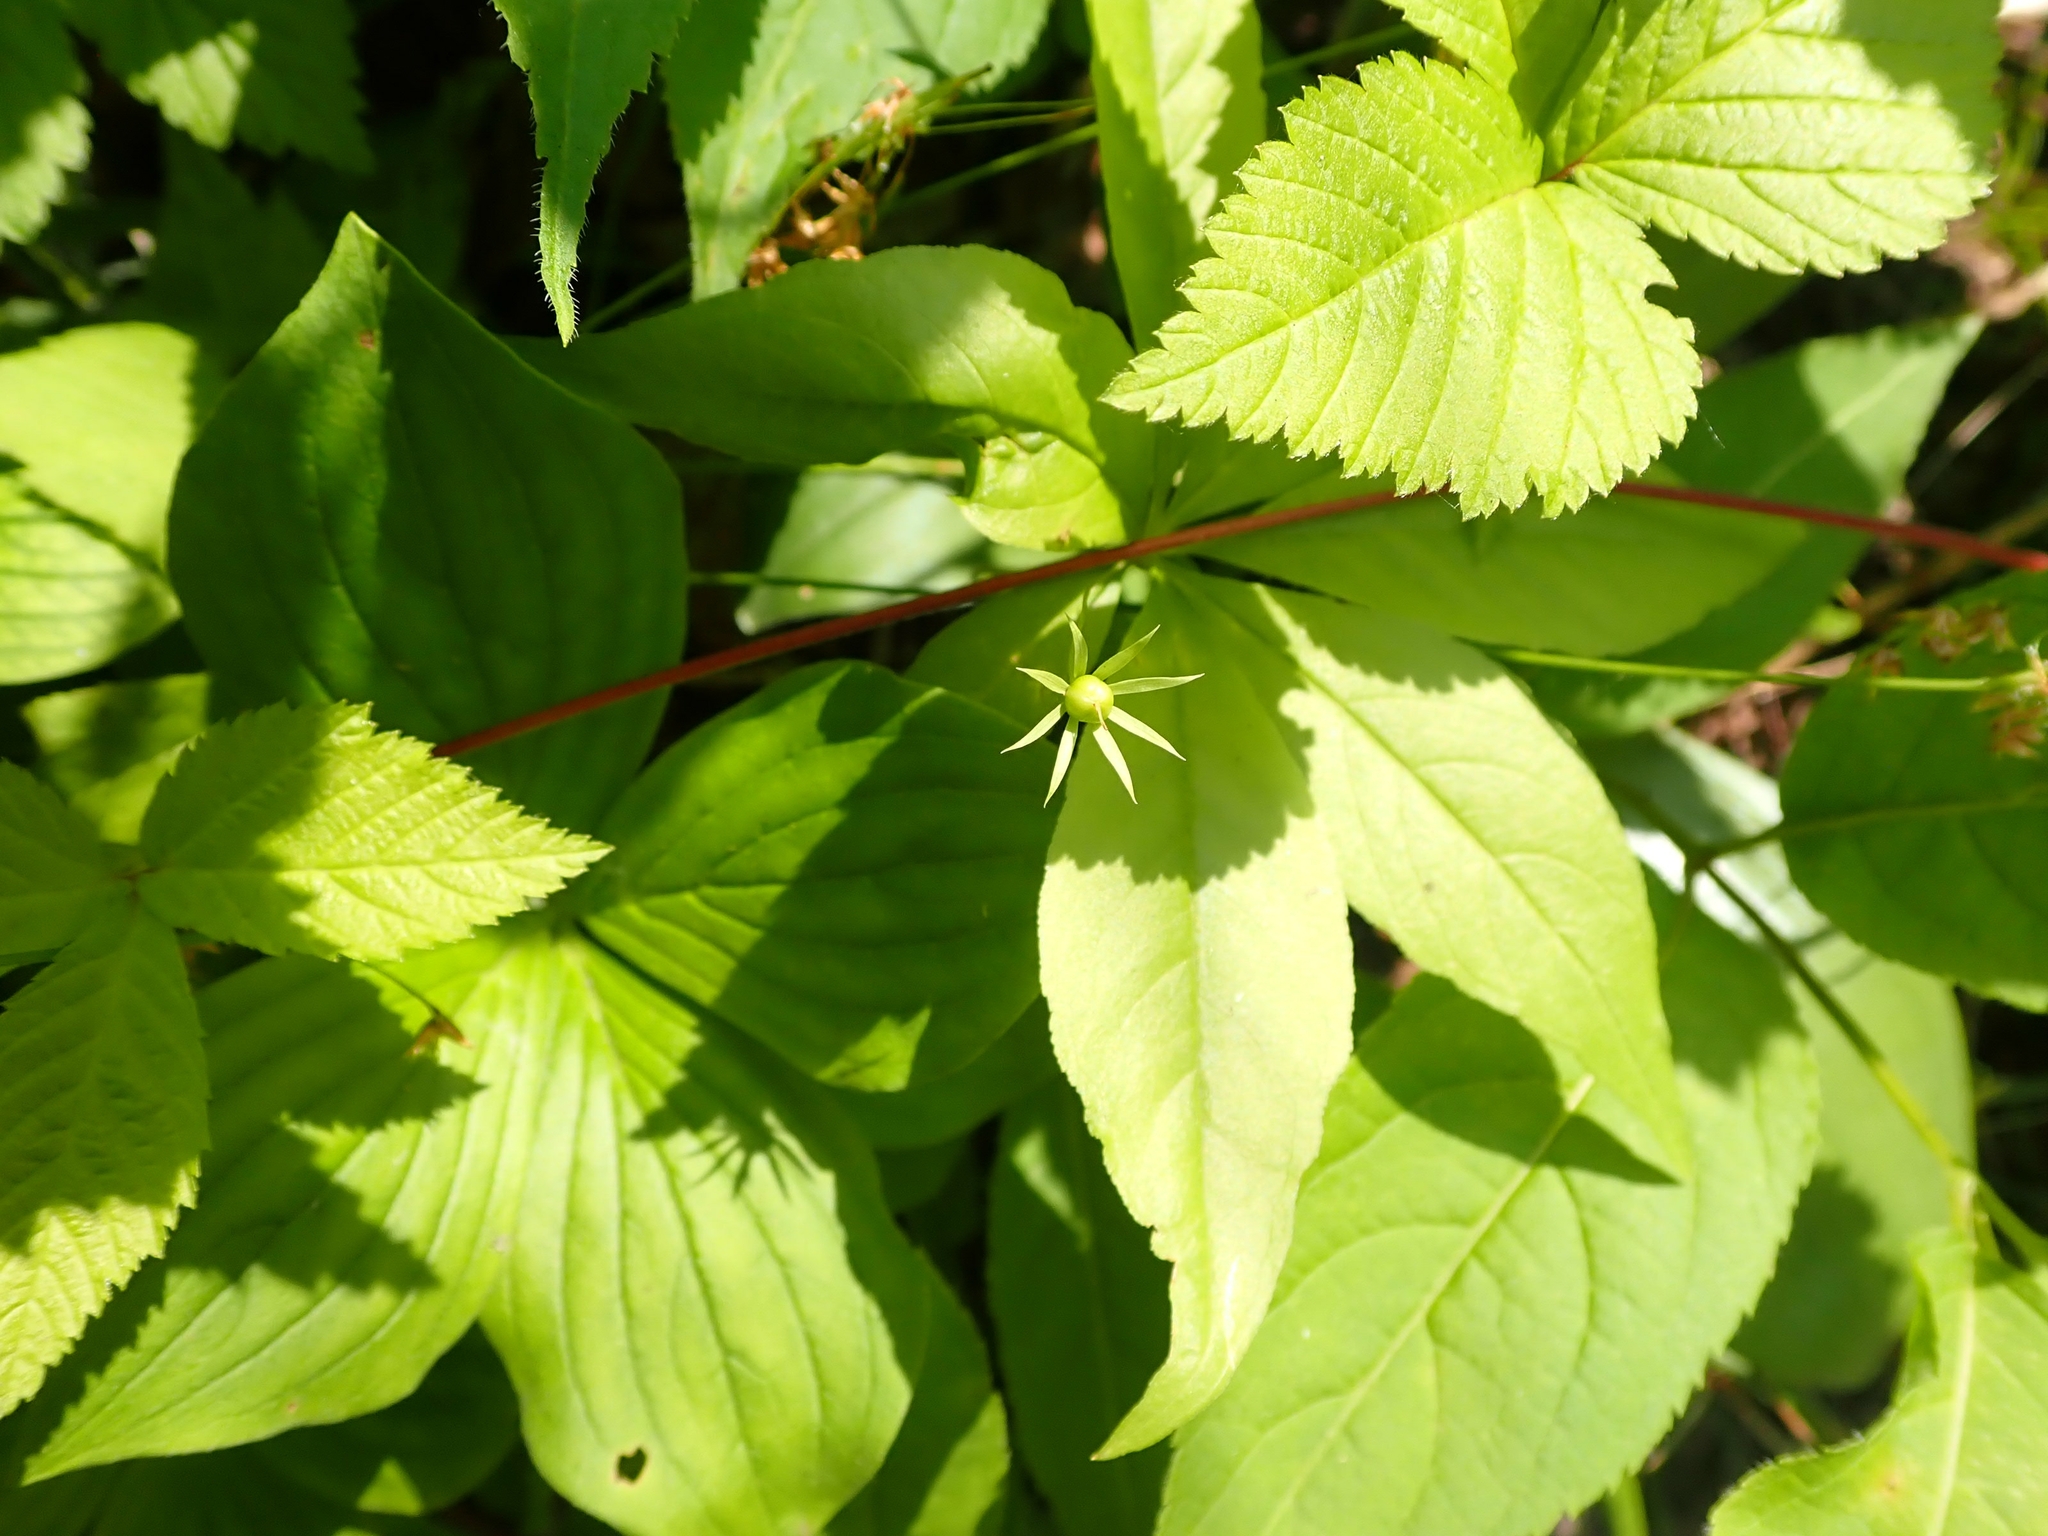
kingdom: Plantae
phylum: Tracheophyta
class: Magnoliopsida
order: Ericales
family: Primulaceae
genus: Lysimachia
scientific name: Lysimachia borealis
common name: American starflower
